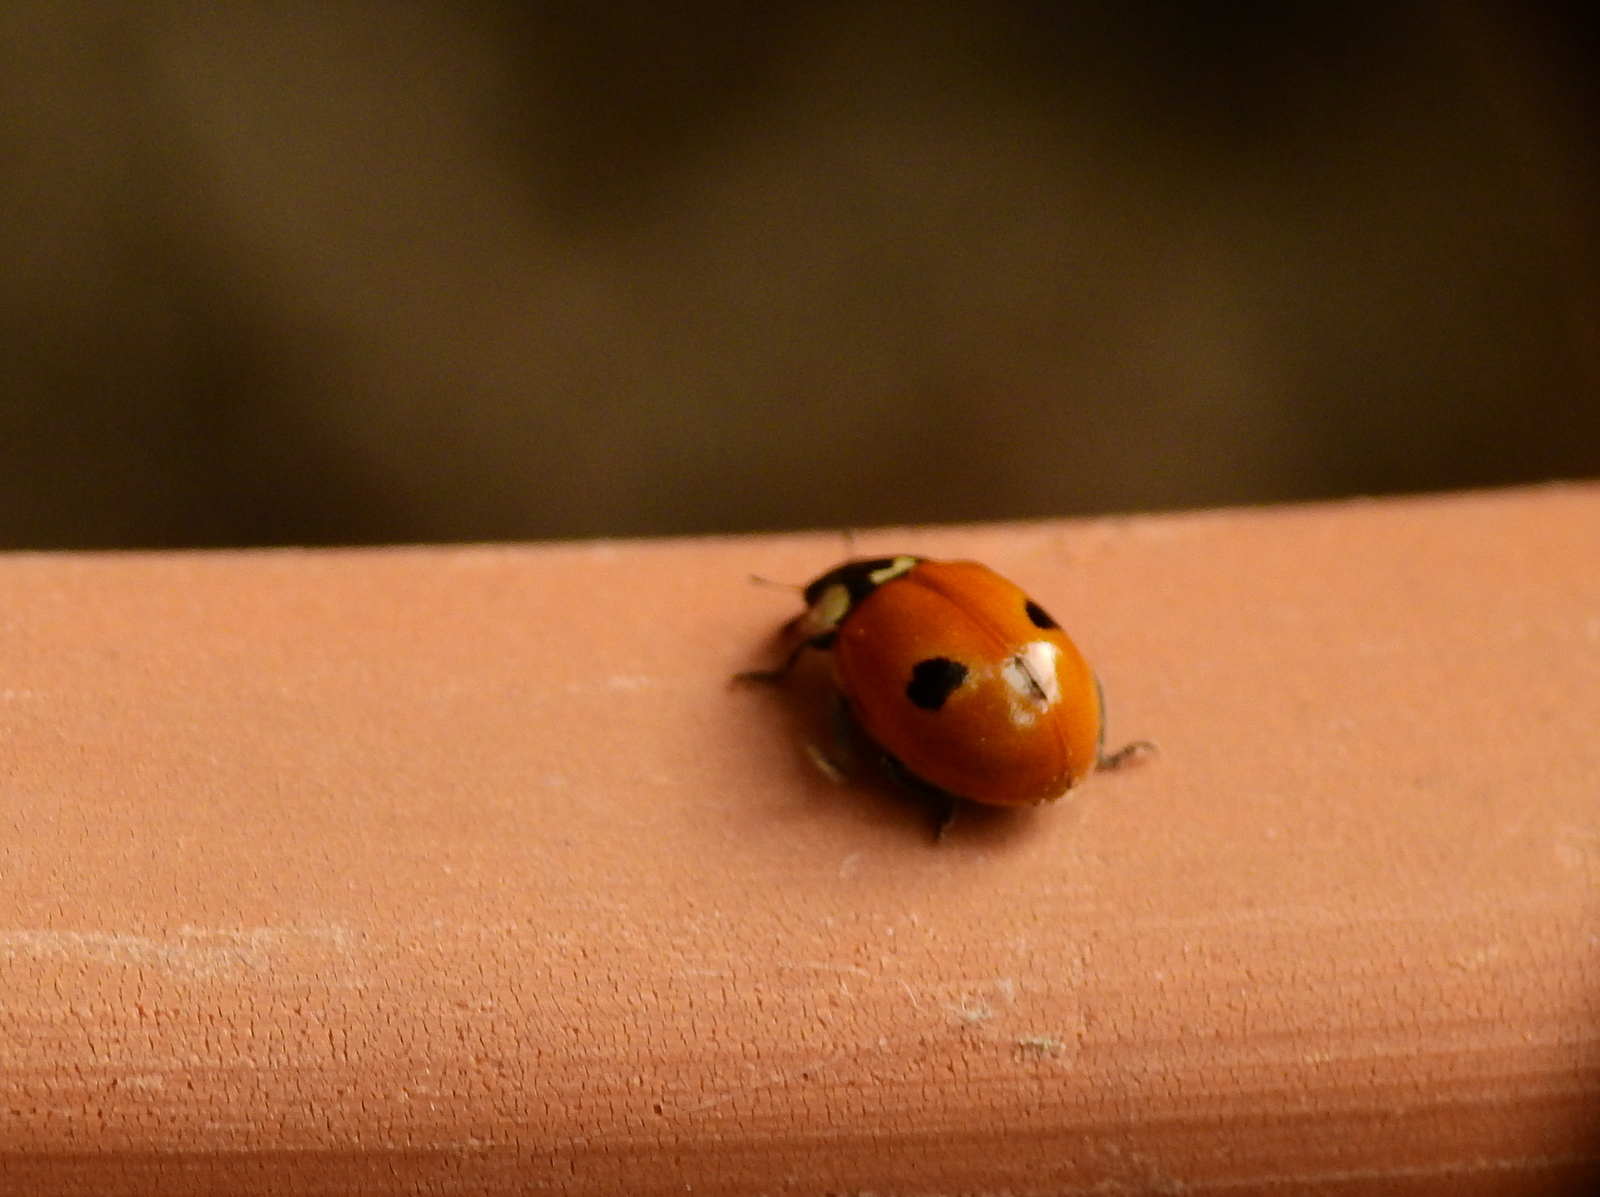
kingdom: Animalia
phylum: Arthropoda
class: Insecta
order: Coleoptera
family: Coccinellidae
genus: Adalia
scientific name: Adalia bipunctata
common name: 2-spot ladybird
